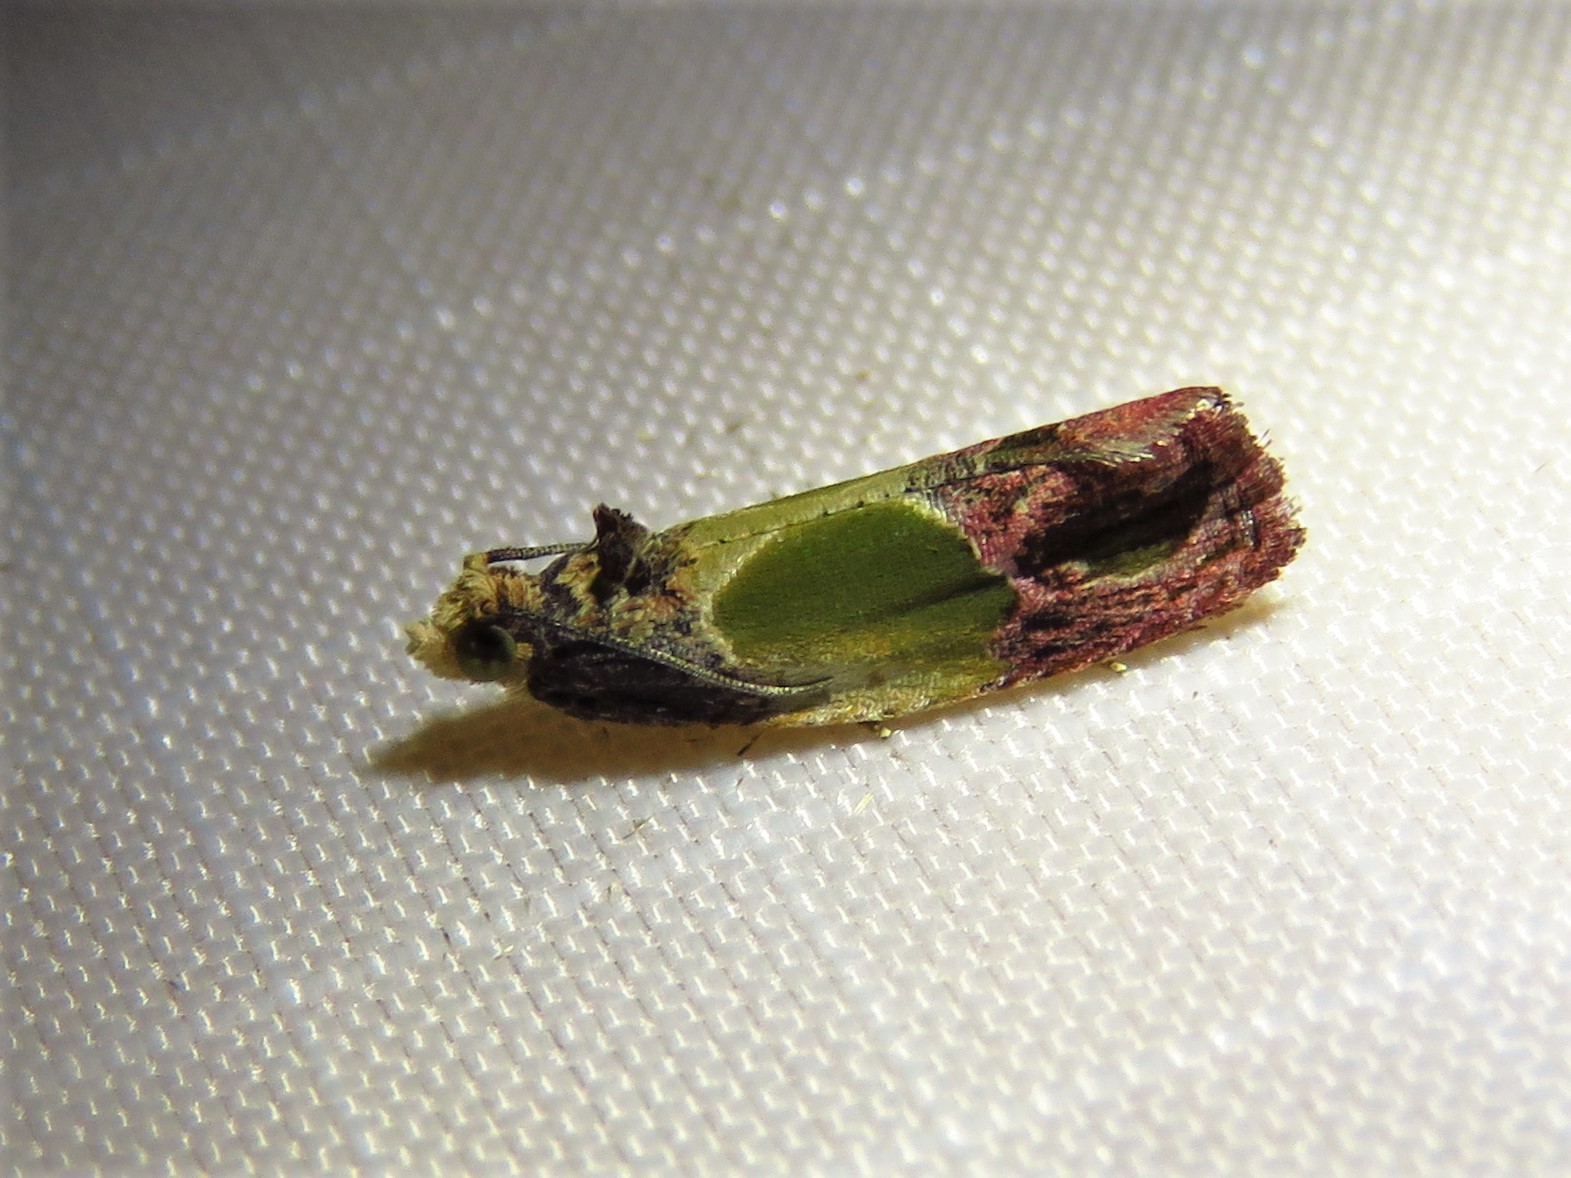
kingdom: Animalia
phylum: Arthropoda
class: Insecta
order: Lepidoptera
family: Tortricidae
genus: Eumarozia
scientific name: Eumarozia malachitana
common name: Sculptured moth
